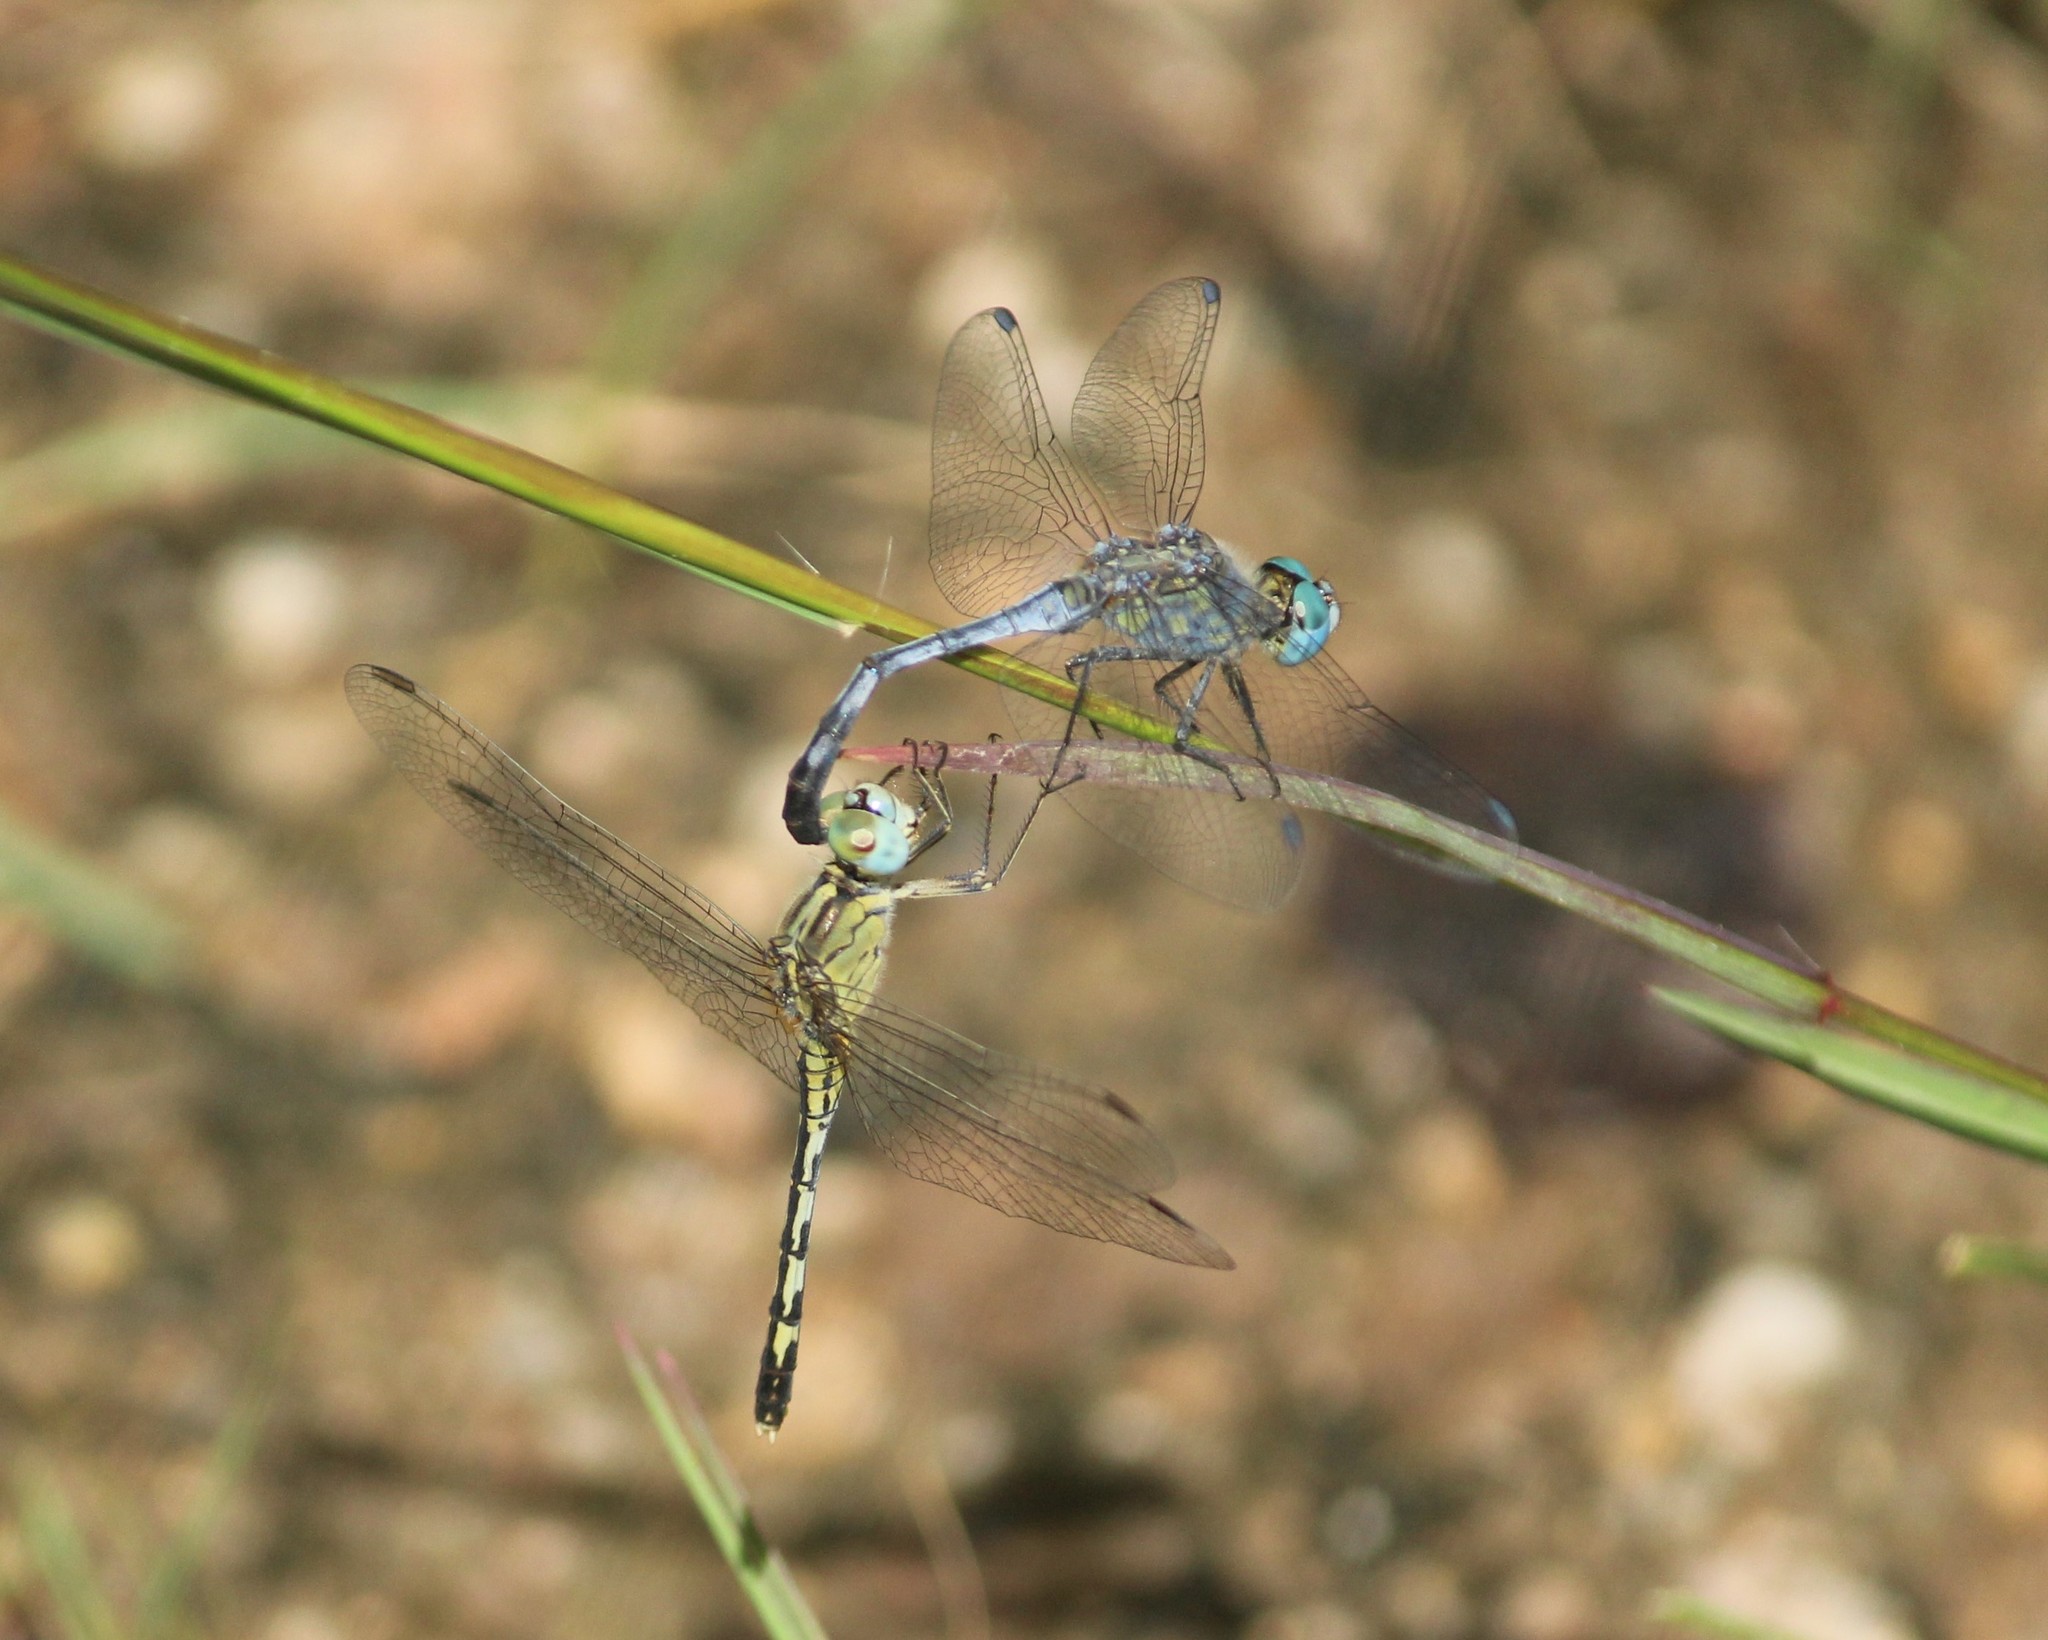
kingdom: Animalia
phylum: Arthropoda
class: Insecta
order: Odonata
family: Libellulidae
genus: Diplacodes
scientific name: Diplacodes trivialis
